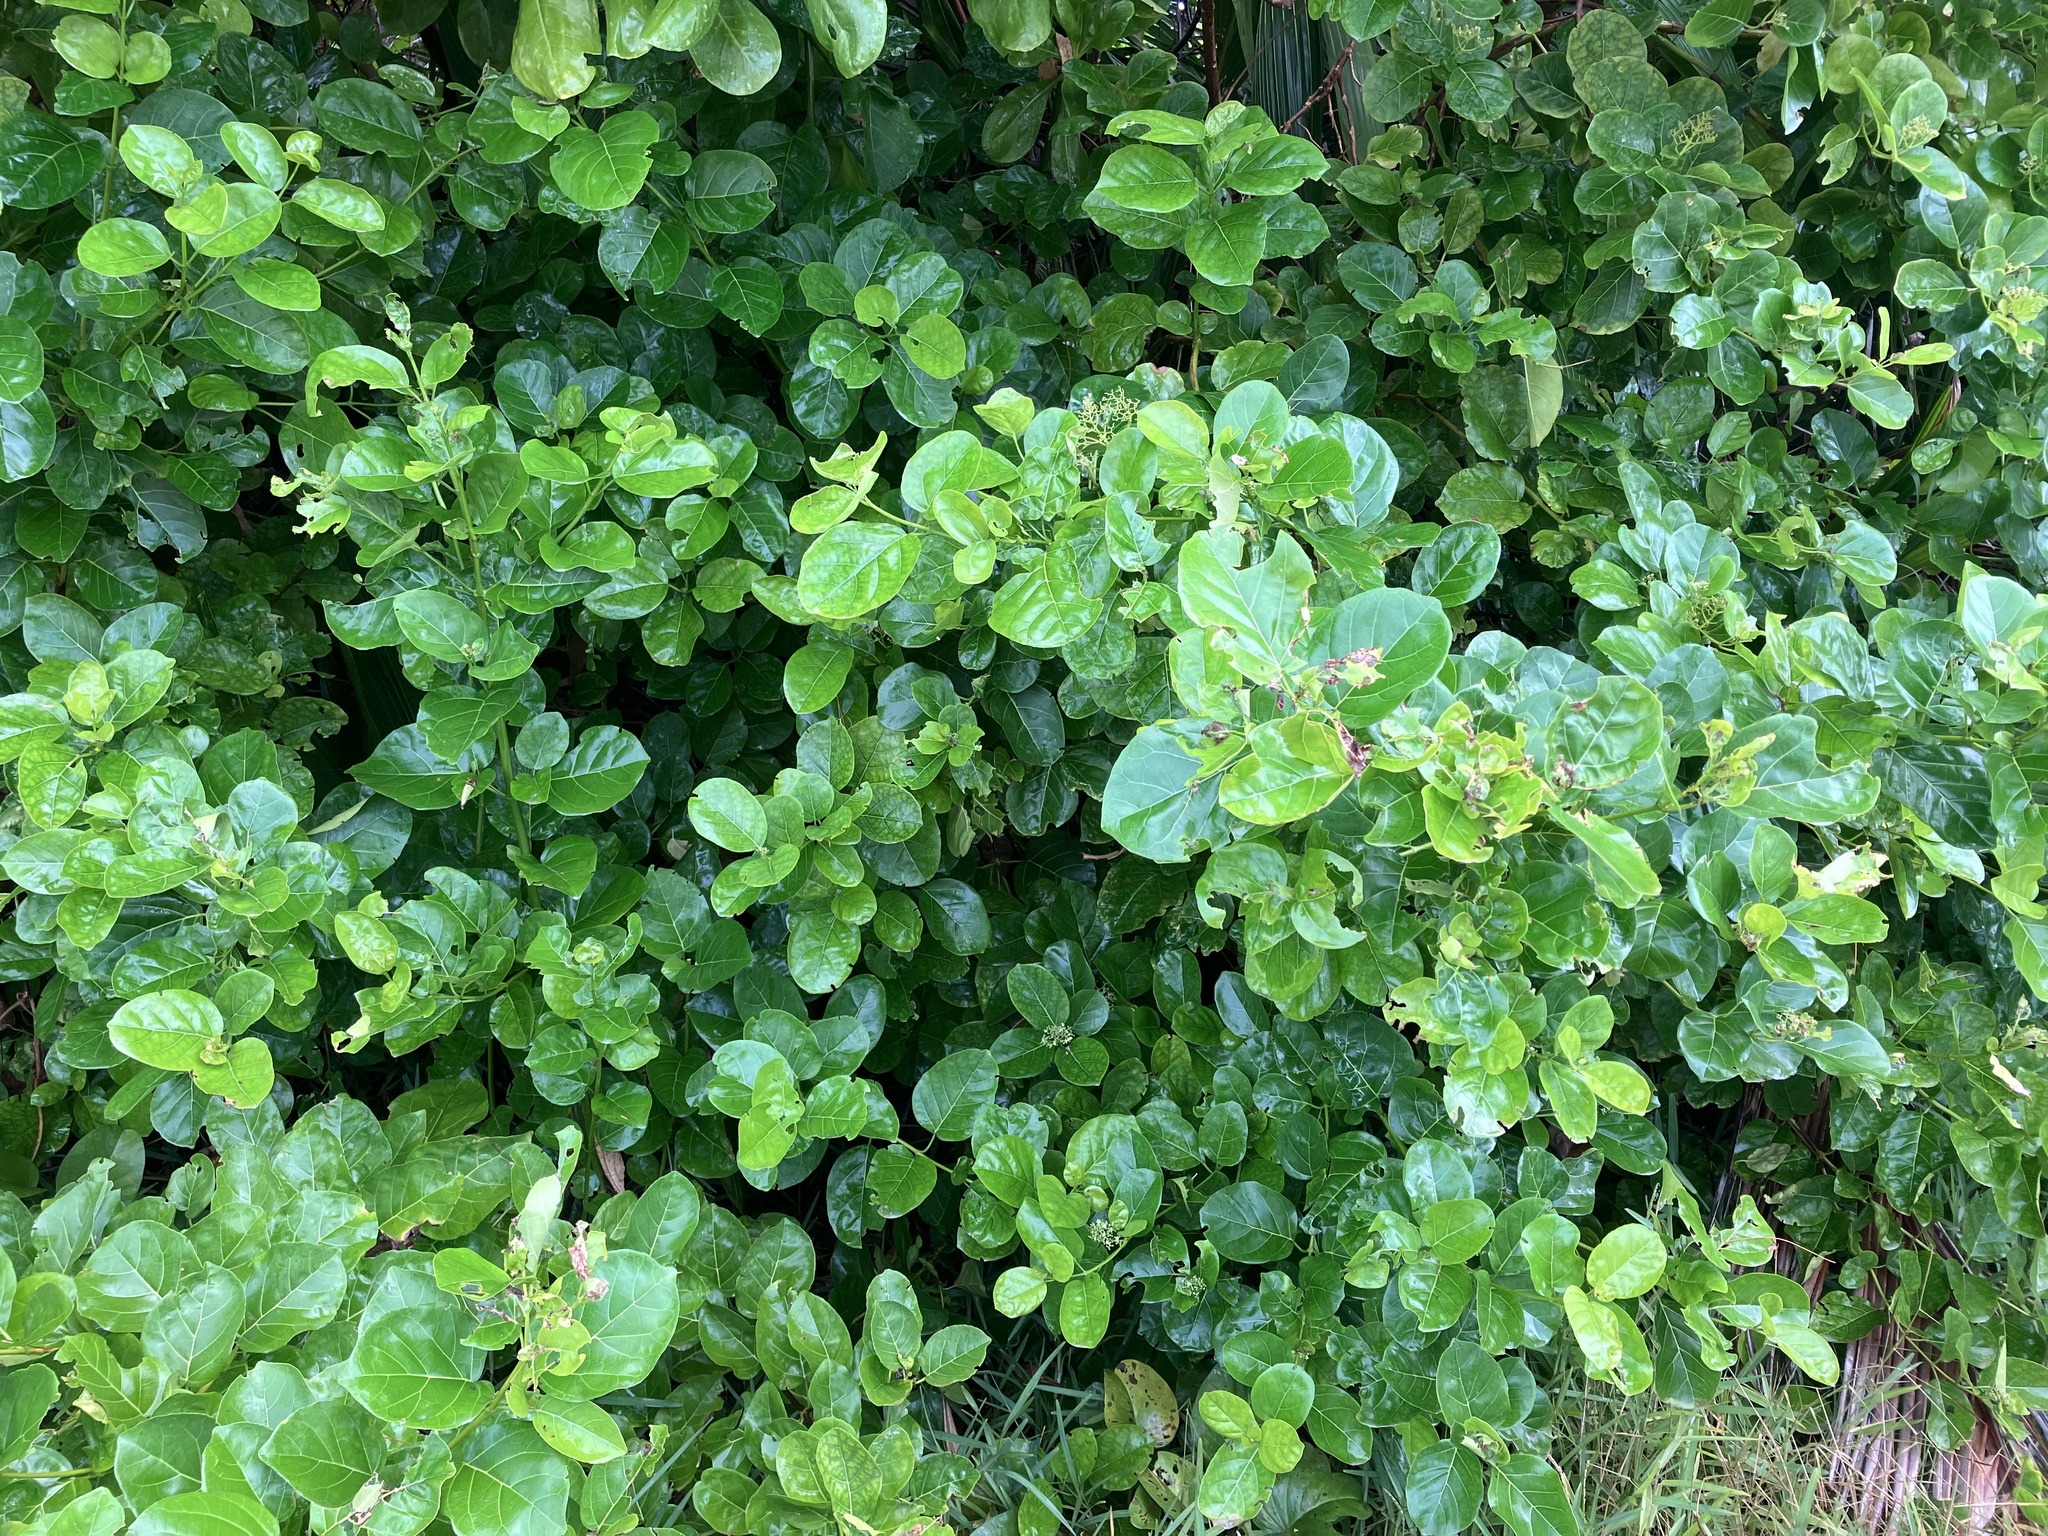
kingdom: Plantae
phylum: Tracheophyta
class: Magnoliopsida
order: Lamiales
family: Lamiaceae
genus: Premna
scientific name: Premna serratifolia
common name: Bastard guelder
